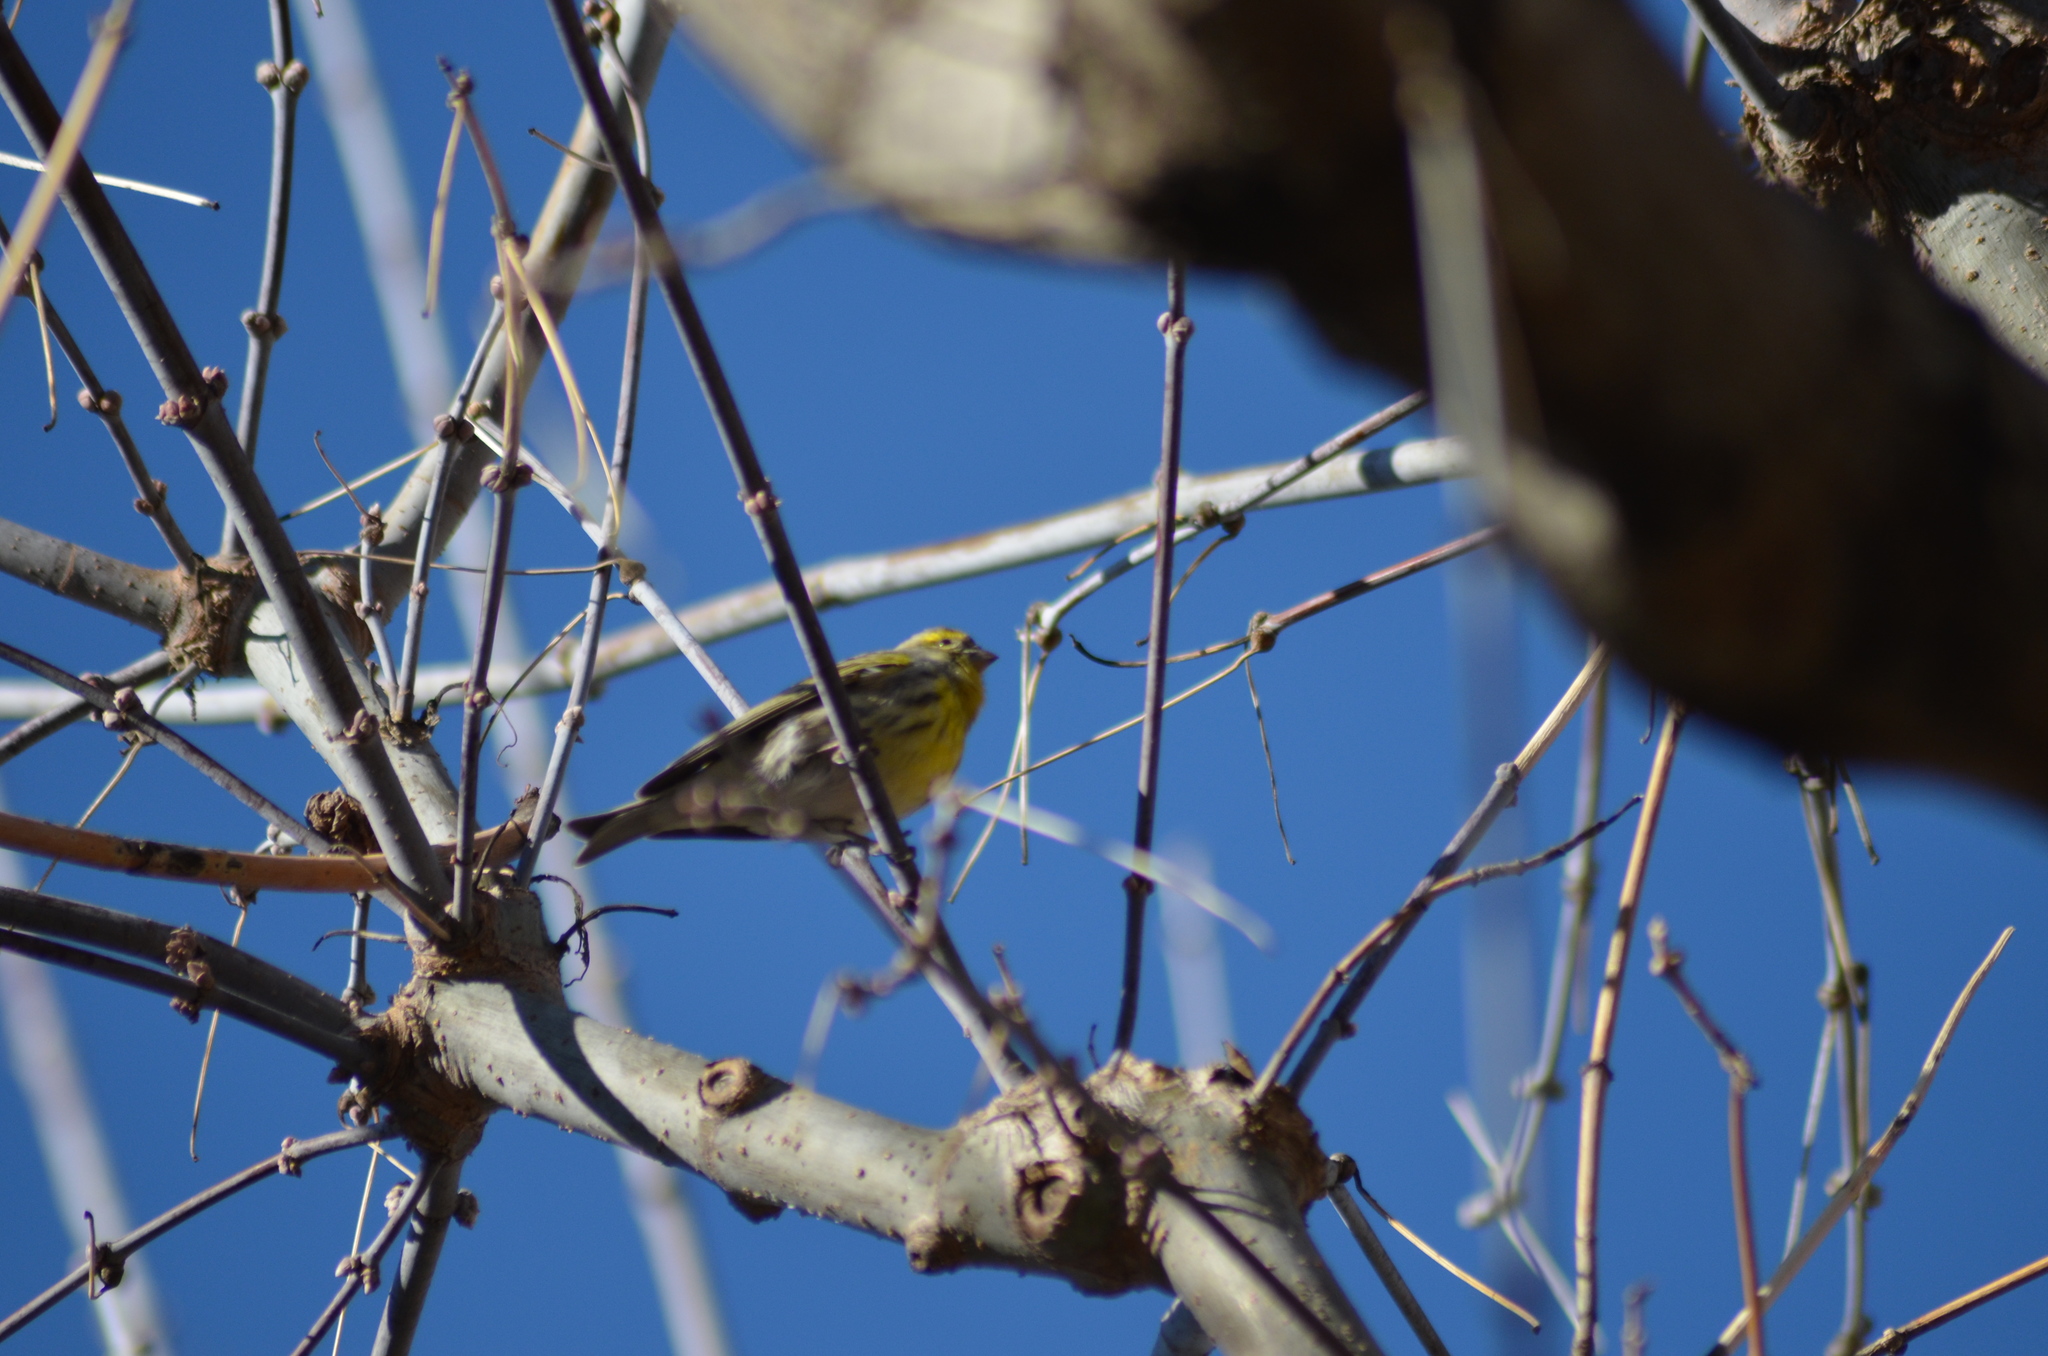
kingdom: Animalia
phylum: Chordata
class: Aves
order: Passeriformes
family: Fringillidae
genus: Serinus
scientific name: Serinus serinus
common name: European serin
